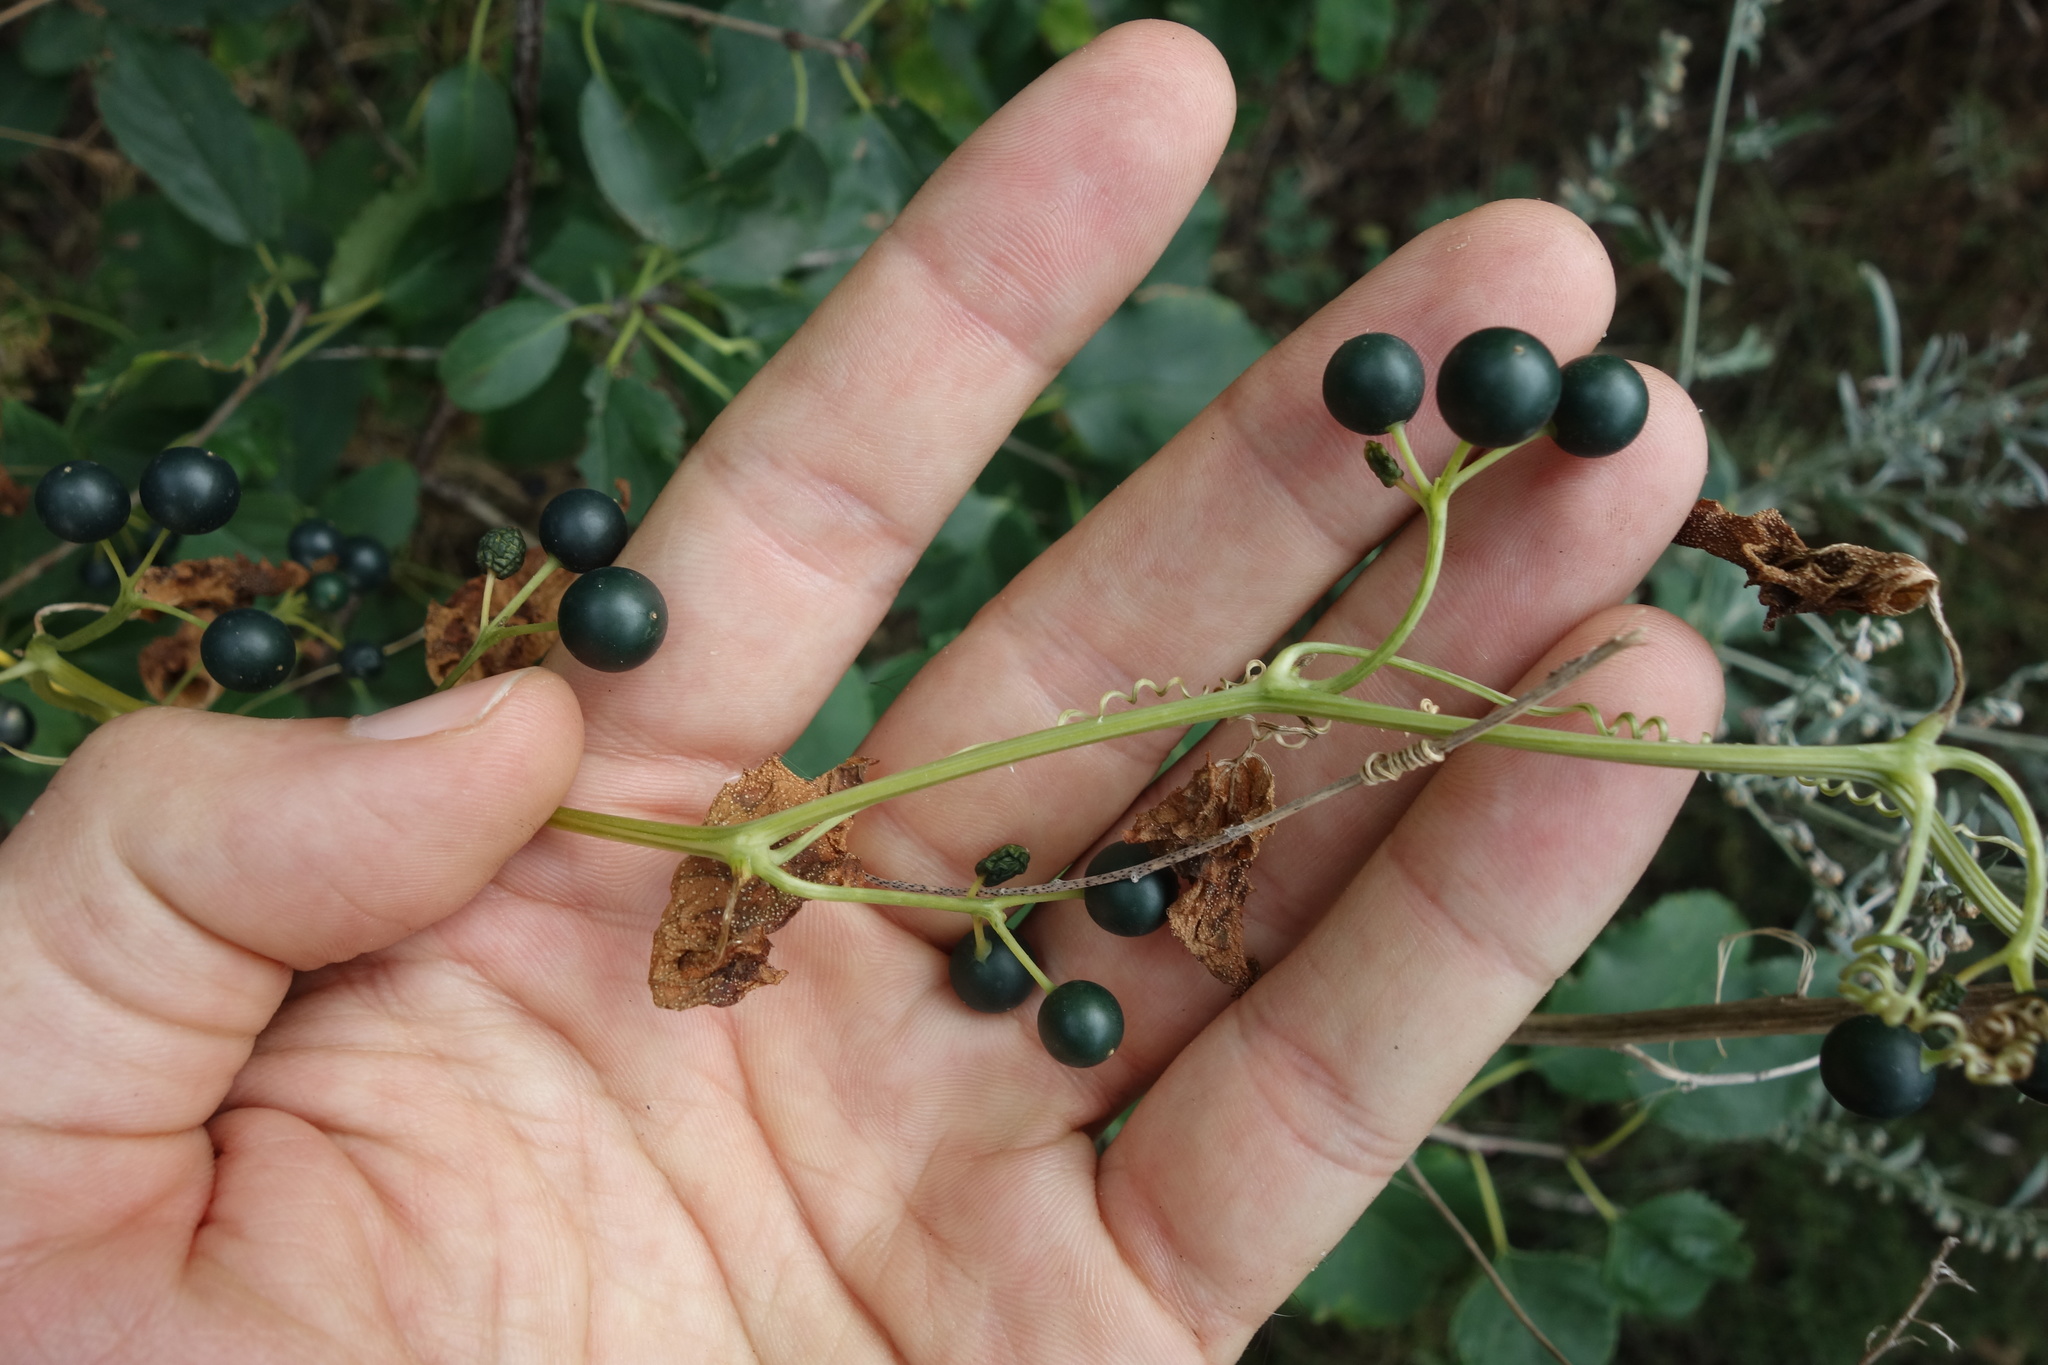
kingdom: Plantae
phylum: Tracheophyta
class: Magnoliopsida
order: Cucurbitales
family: Cucurbitaceae
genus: Bryonia
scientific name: Bryonia alba
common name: White bryony
